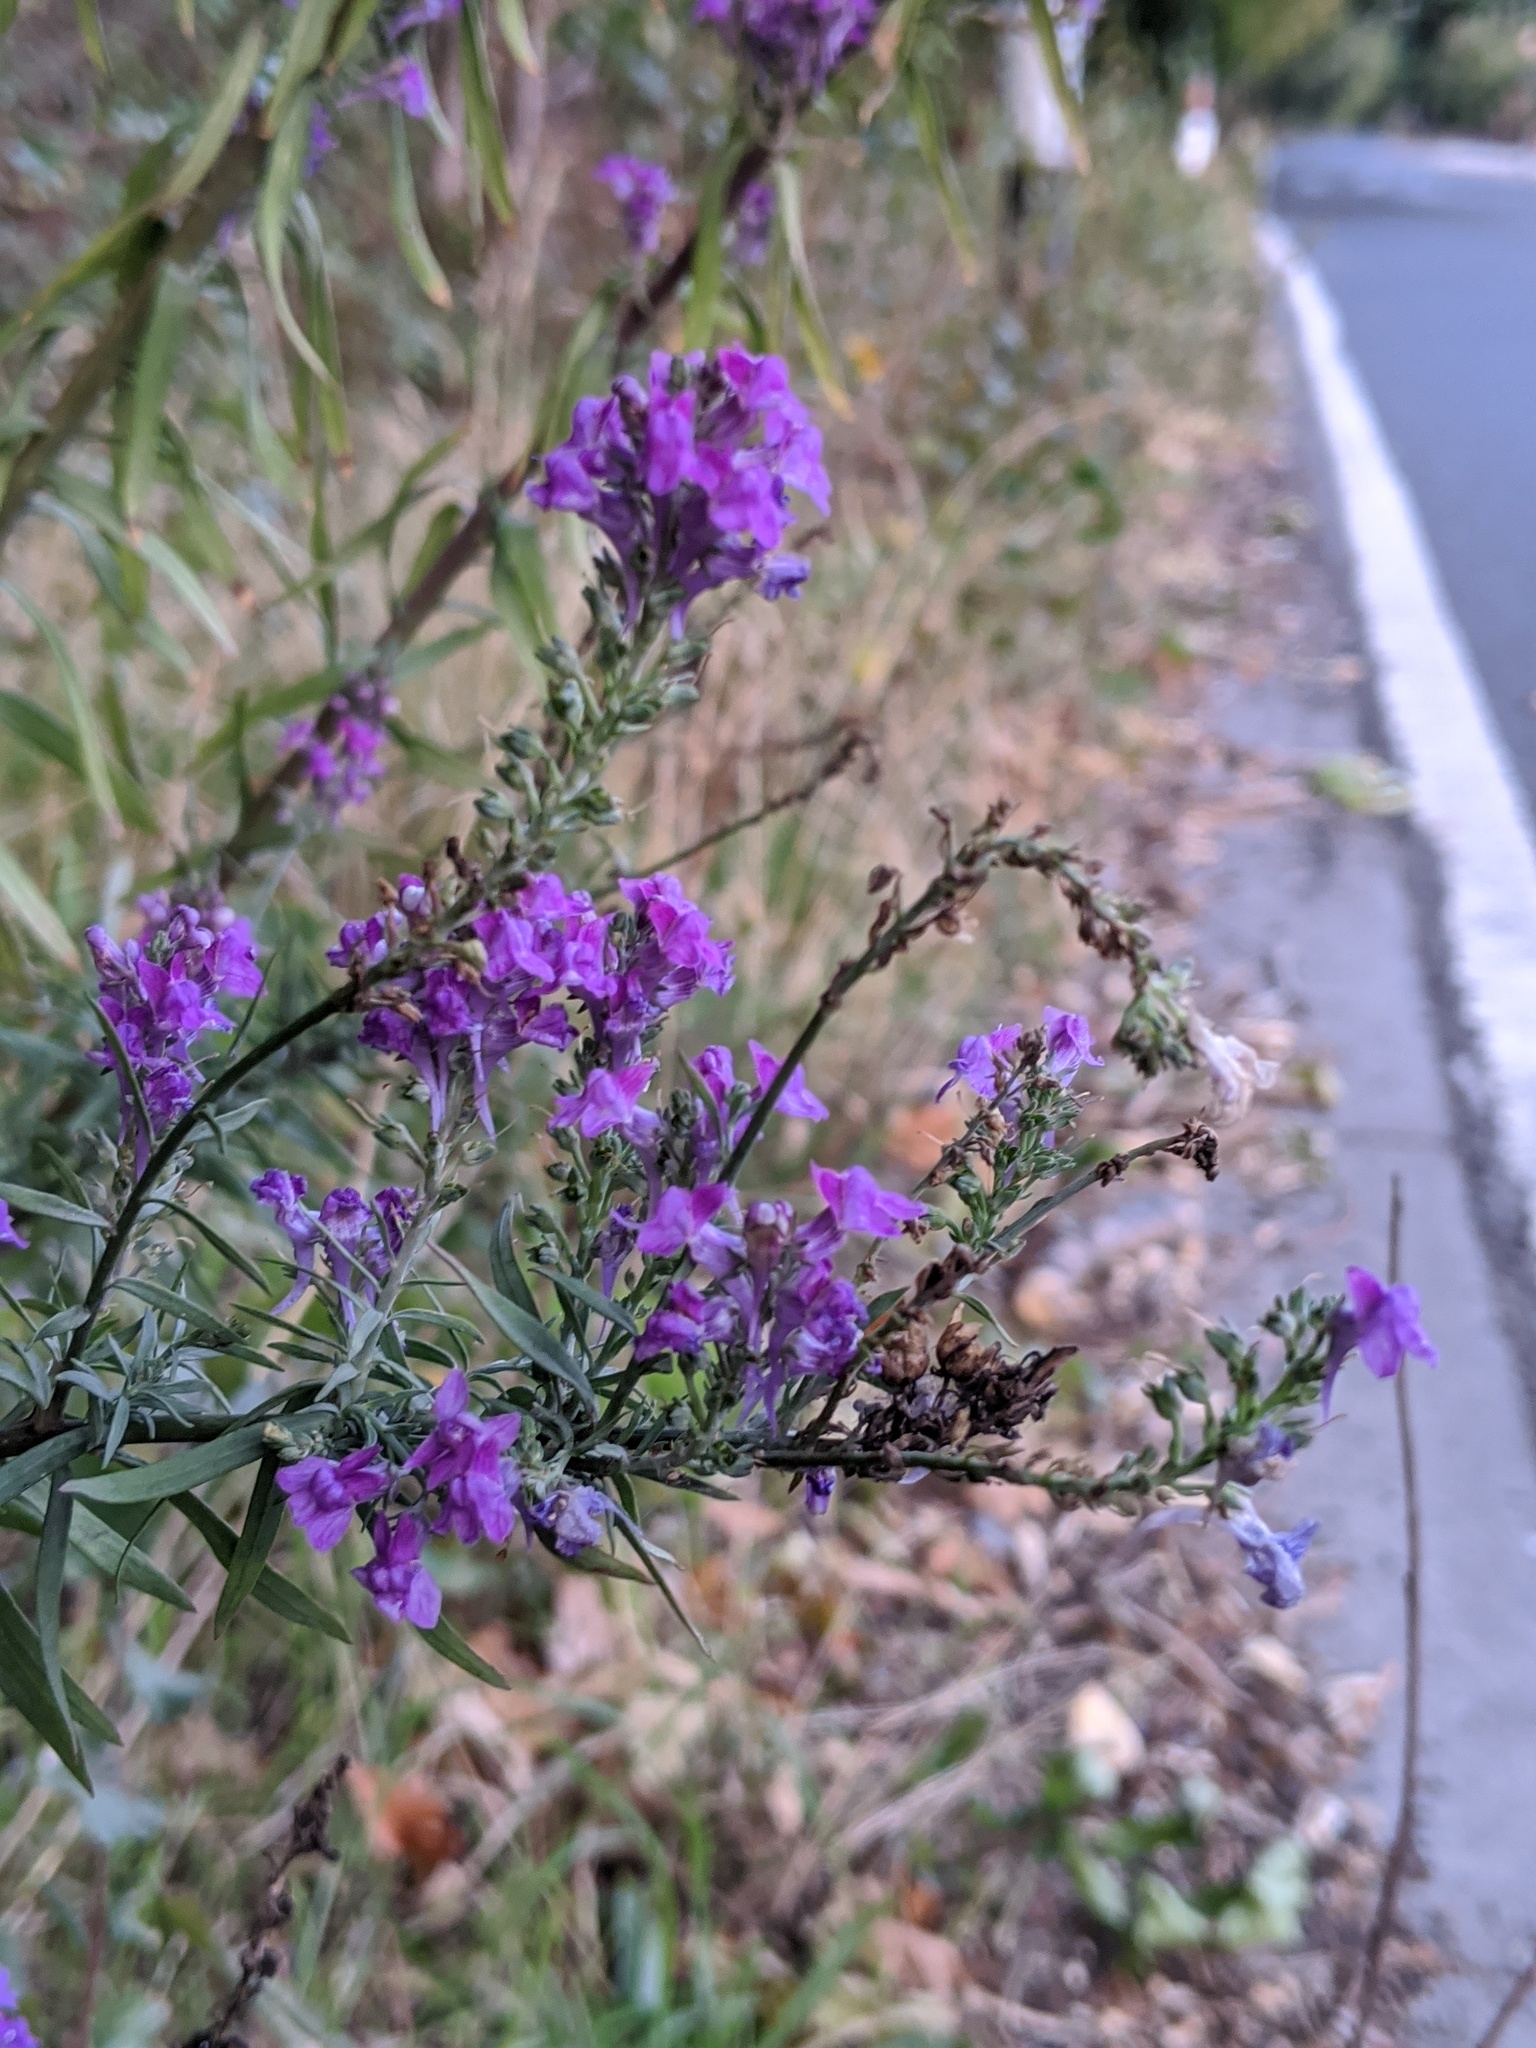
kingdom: Plantae
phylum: Tracheophyta
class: Magnoliopsida
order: Lamiales
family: Plantaginaceae
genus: Linaria
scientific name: Linaria purpurea
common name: Purple toadflax
